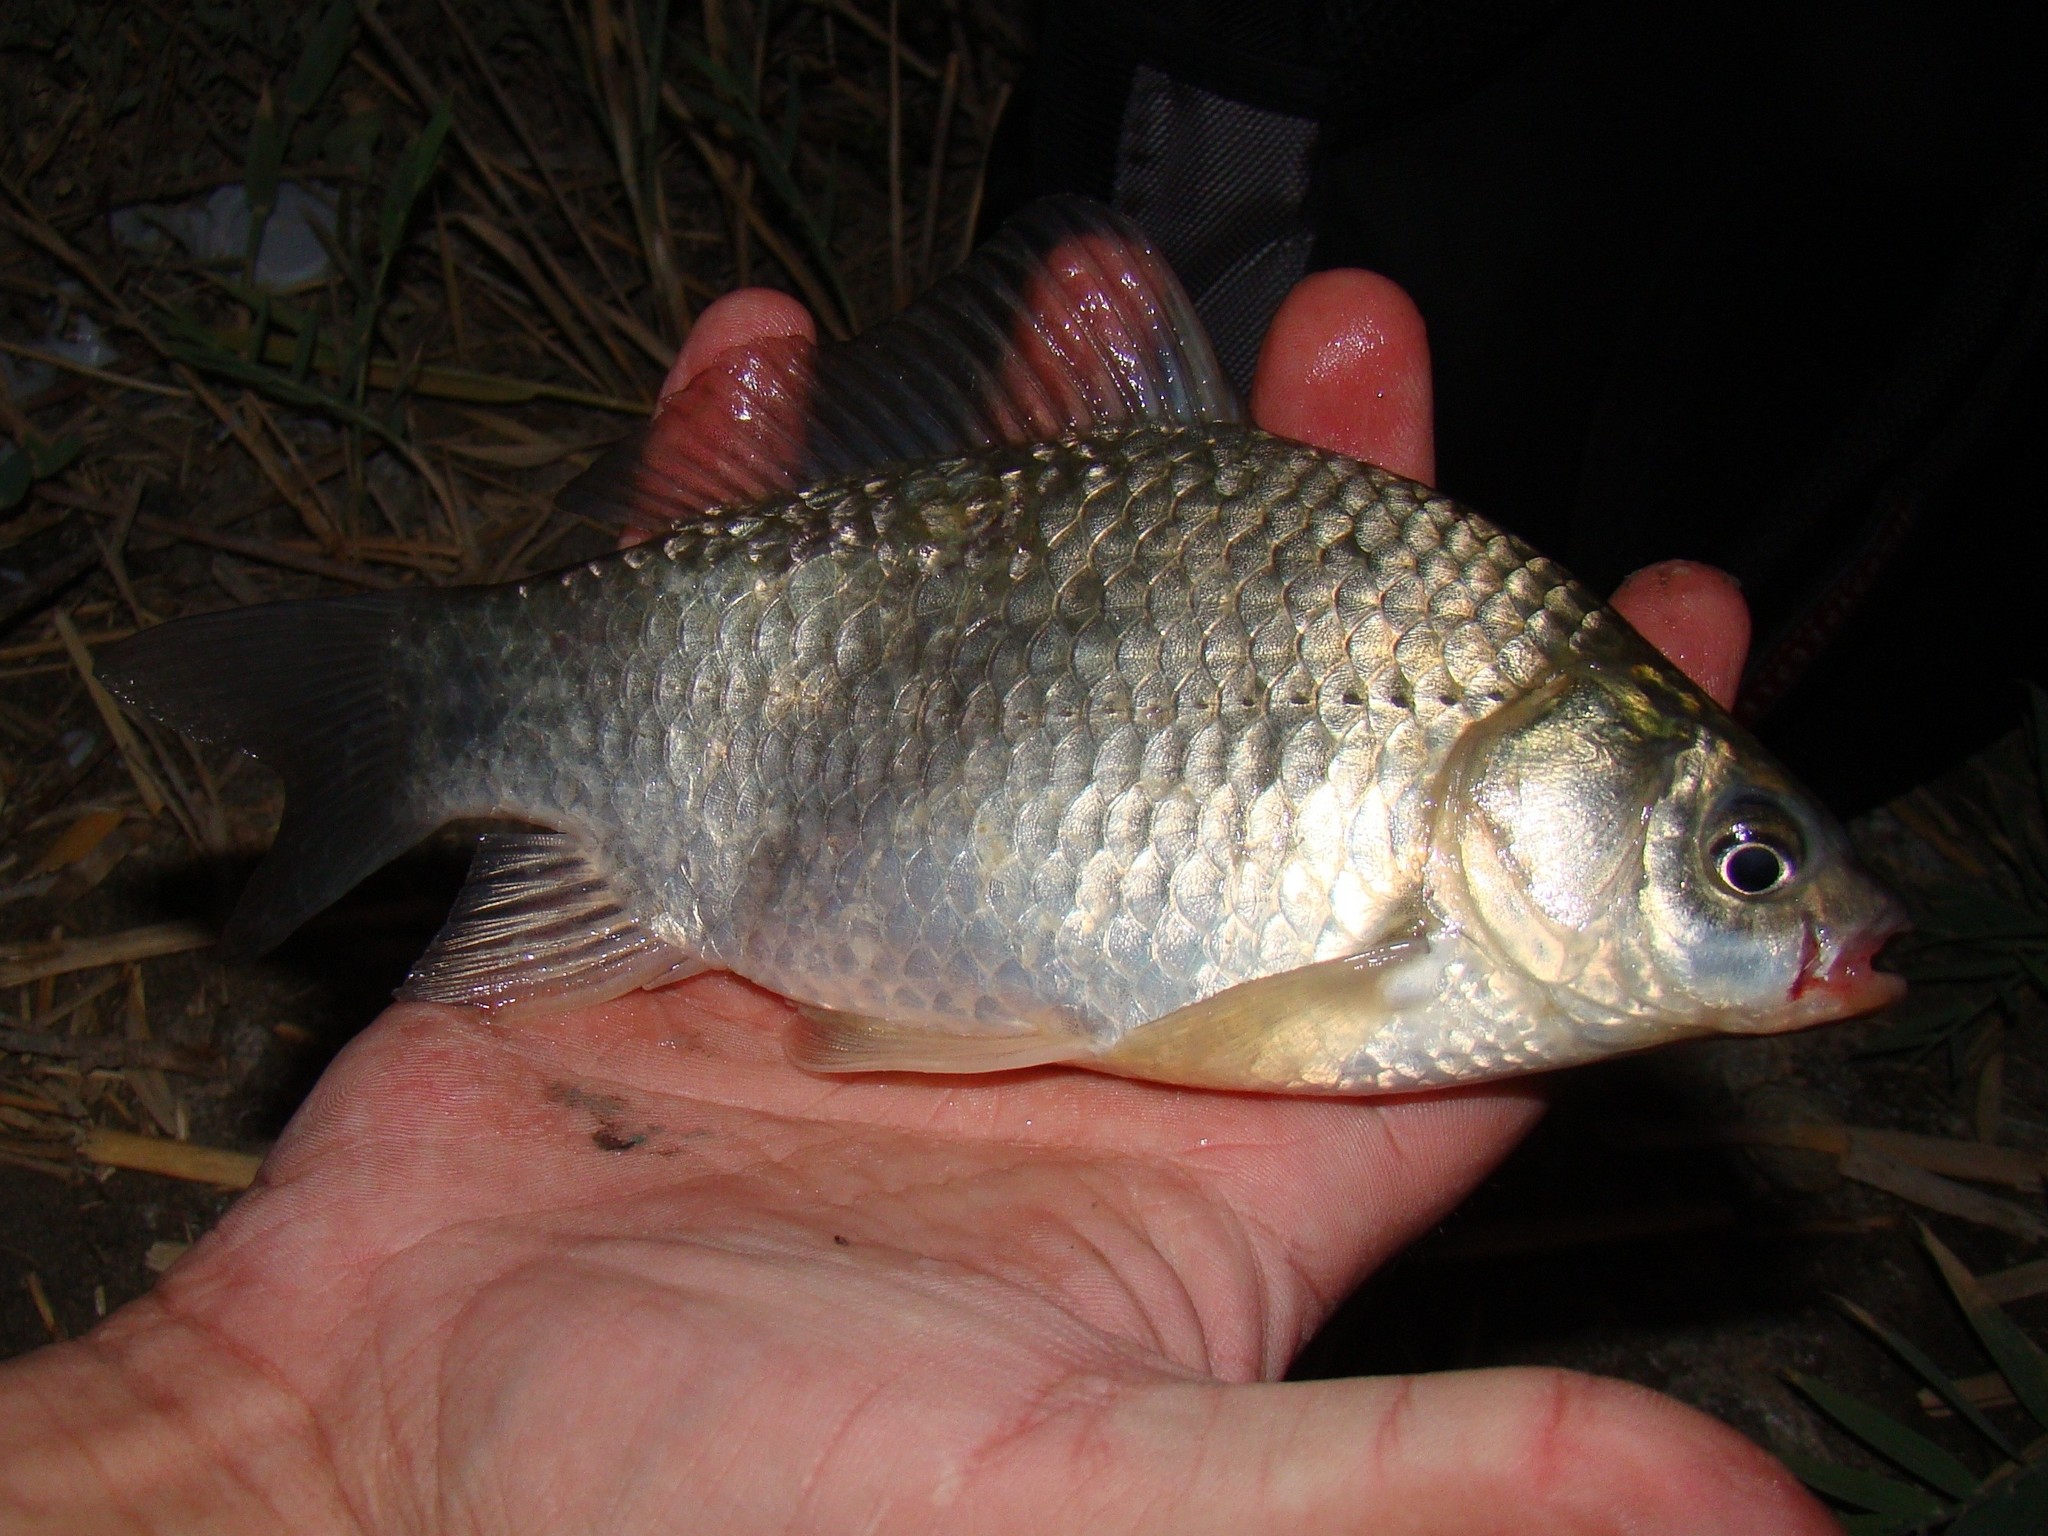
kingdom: Animalia
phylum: Chordata
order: Cypriniformes
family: Cyprinidae
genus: Carassius
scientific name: Carassius gibelio
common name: Prussian carp
